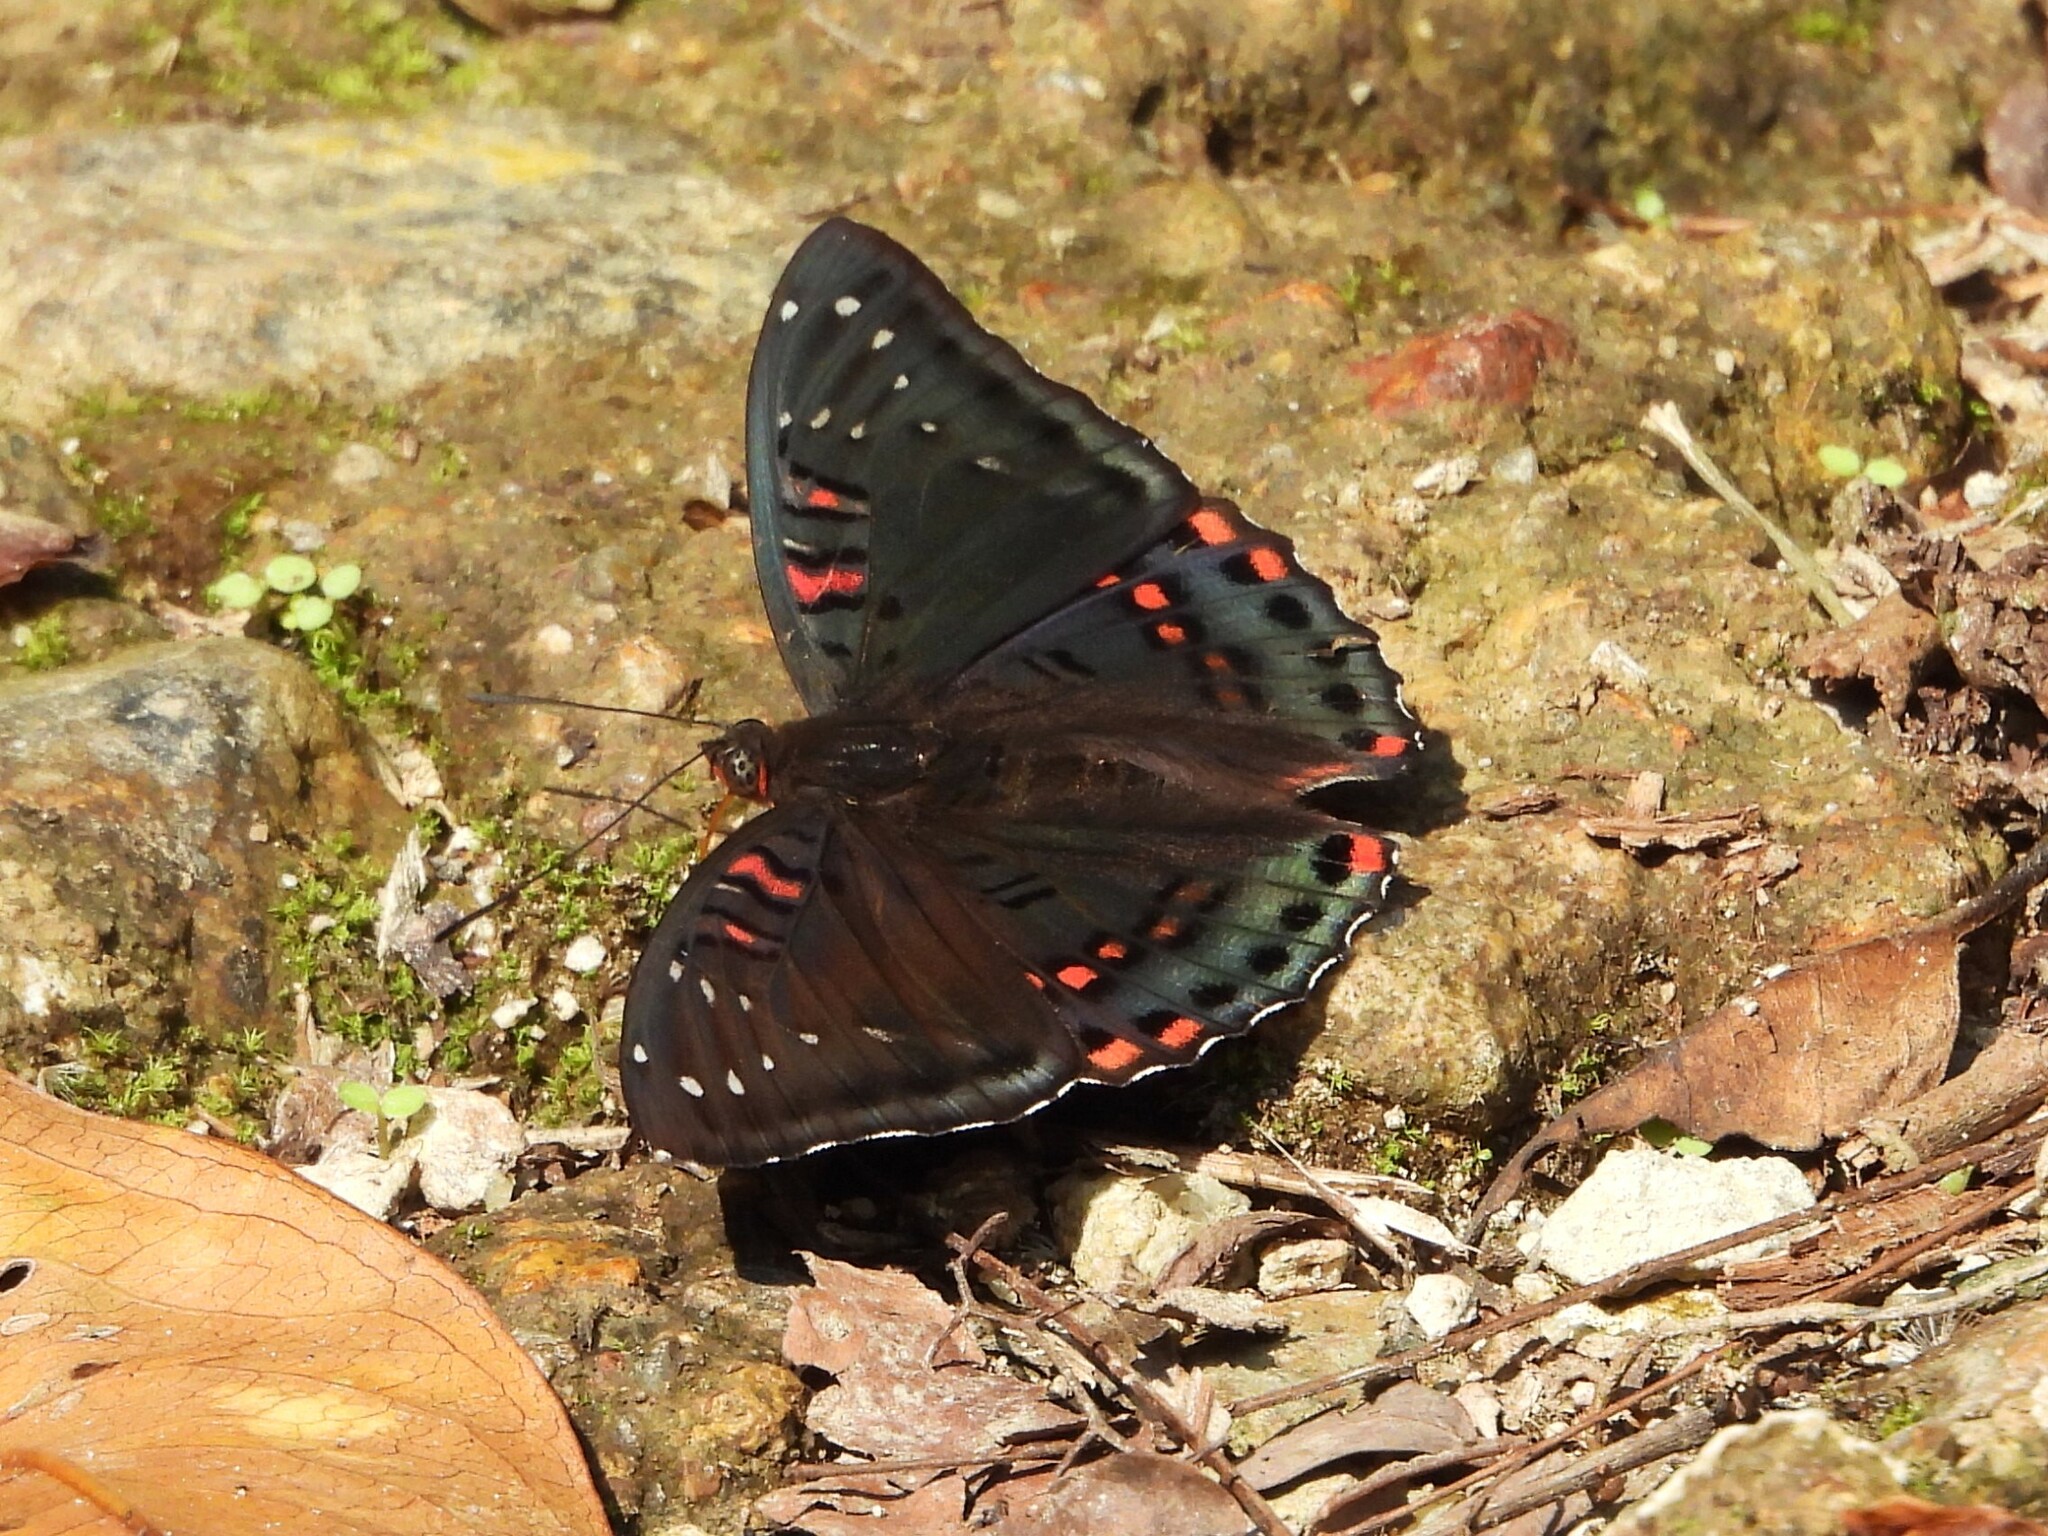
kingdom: Animalia
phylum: Arthropoda
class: Insecta
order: Lepidoptera
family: Nymphalidae
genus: Euthalia
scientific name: Euthalia lubentina
